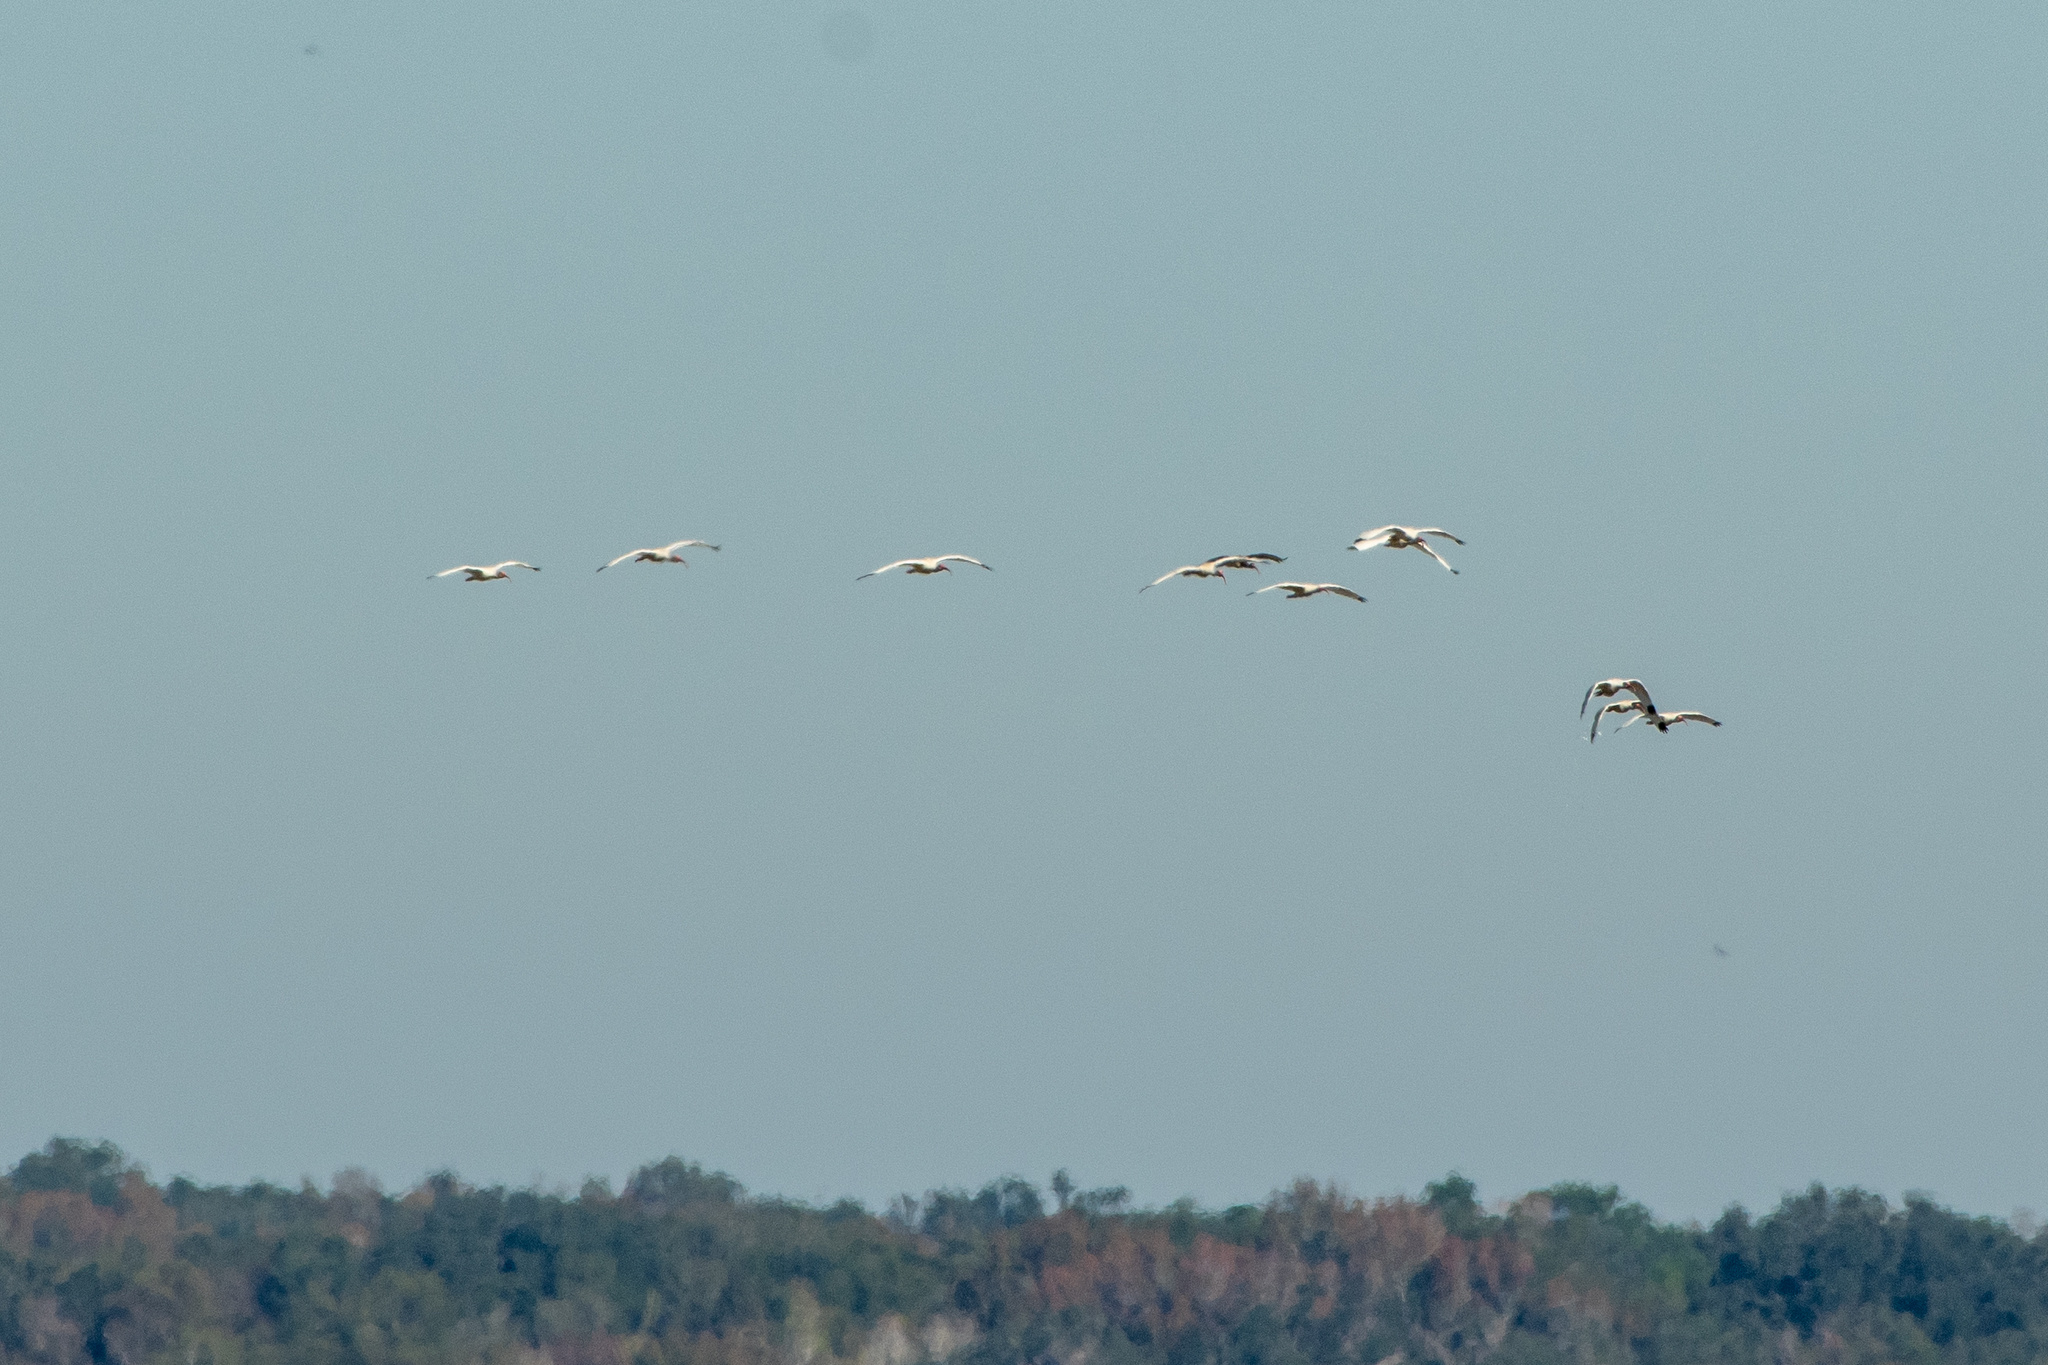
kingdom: Animalia
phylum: Chordata
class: Aves
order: Pelecaniformes
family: Threskiornithidae
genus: Eudocimus
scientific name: Eudocimus albus
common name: White ibis
